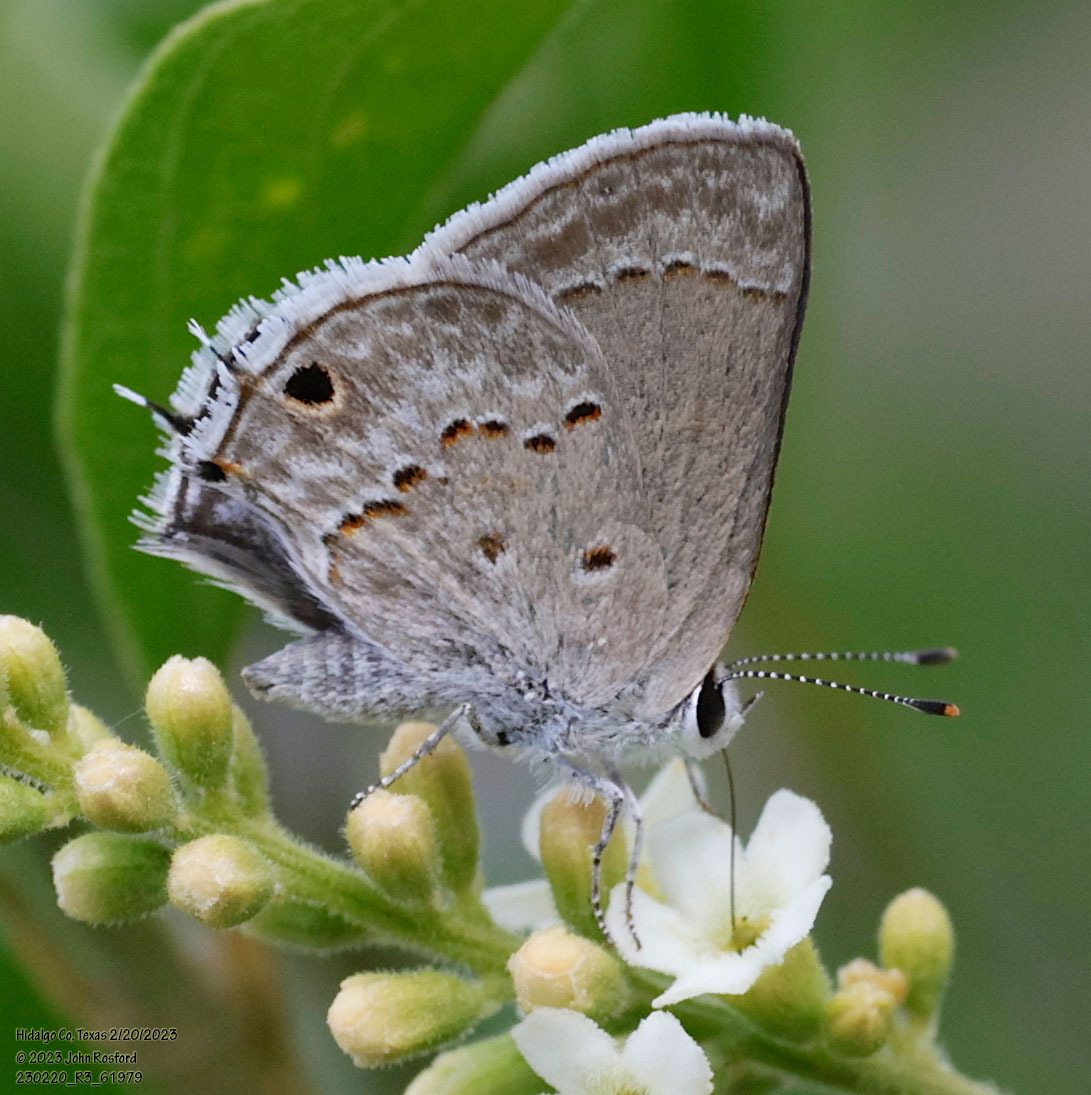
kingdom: Animalia
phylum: Arthropoda
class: Insecta
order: Lepidoptera
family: Lycaenidae
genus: Callicista
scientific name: Callicista columella
